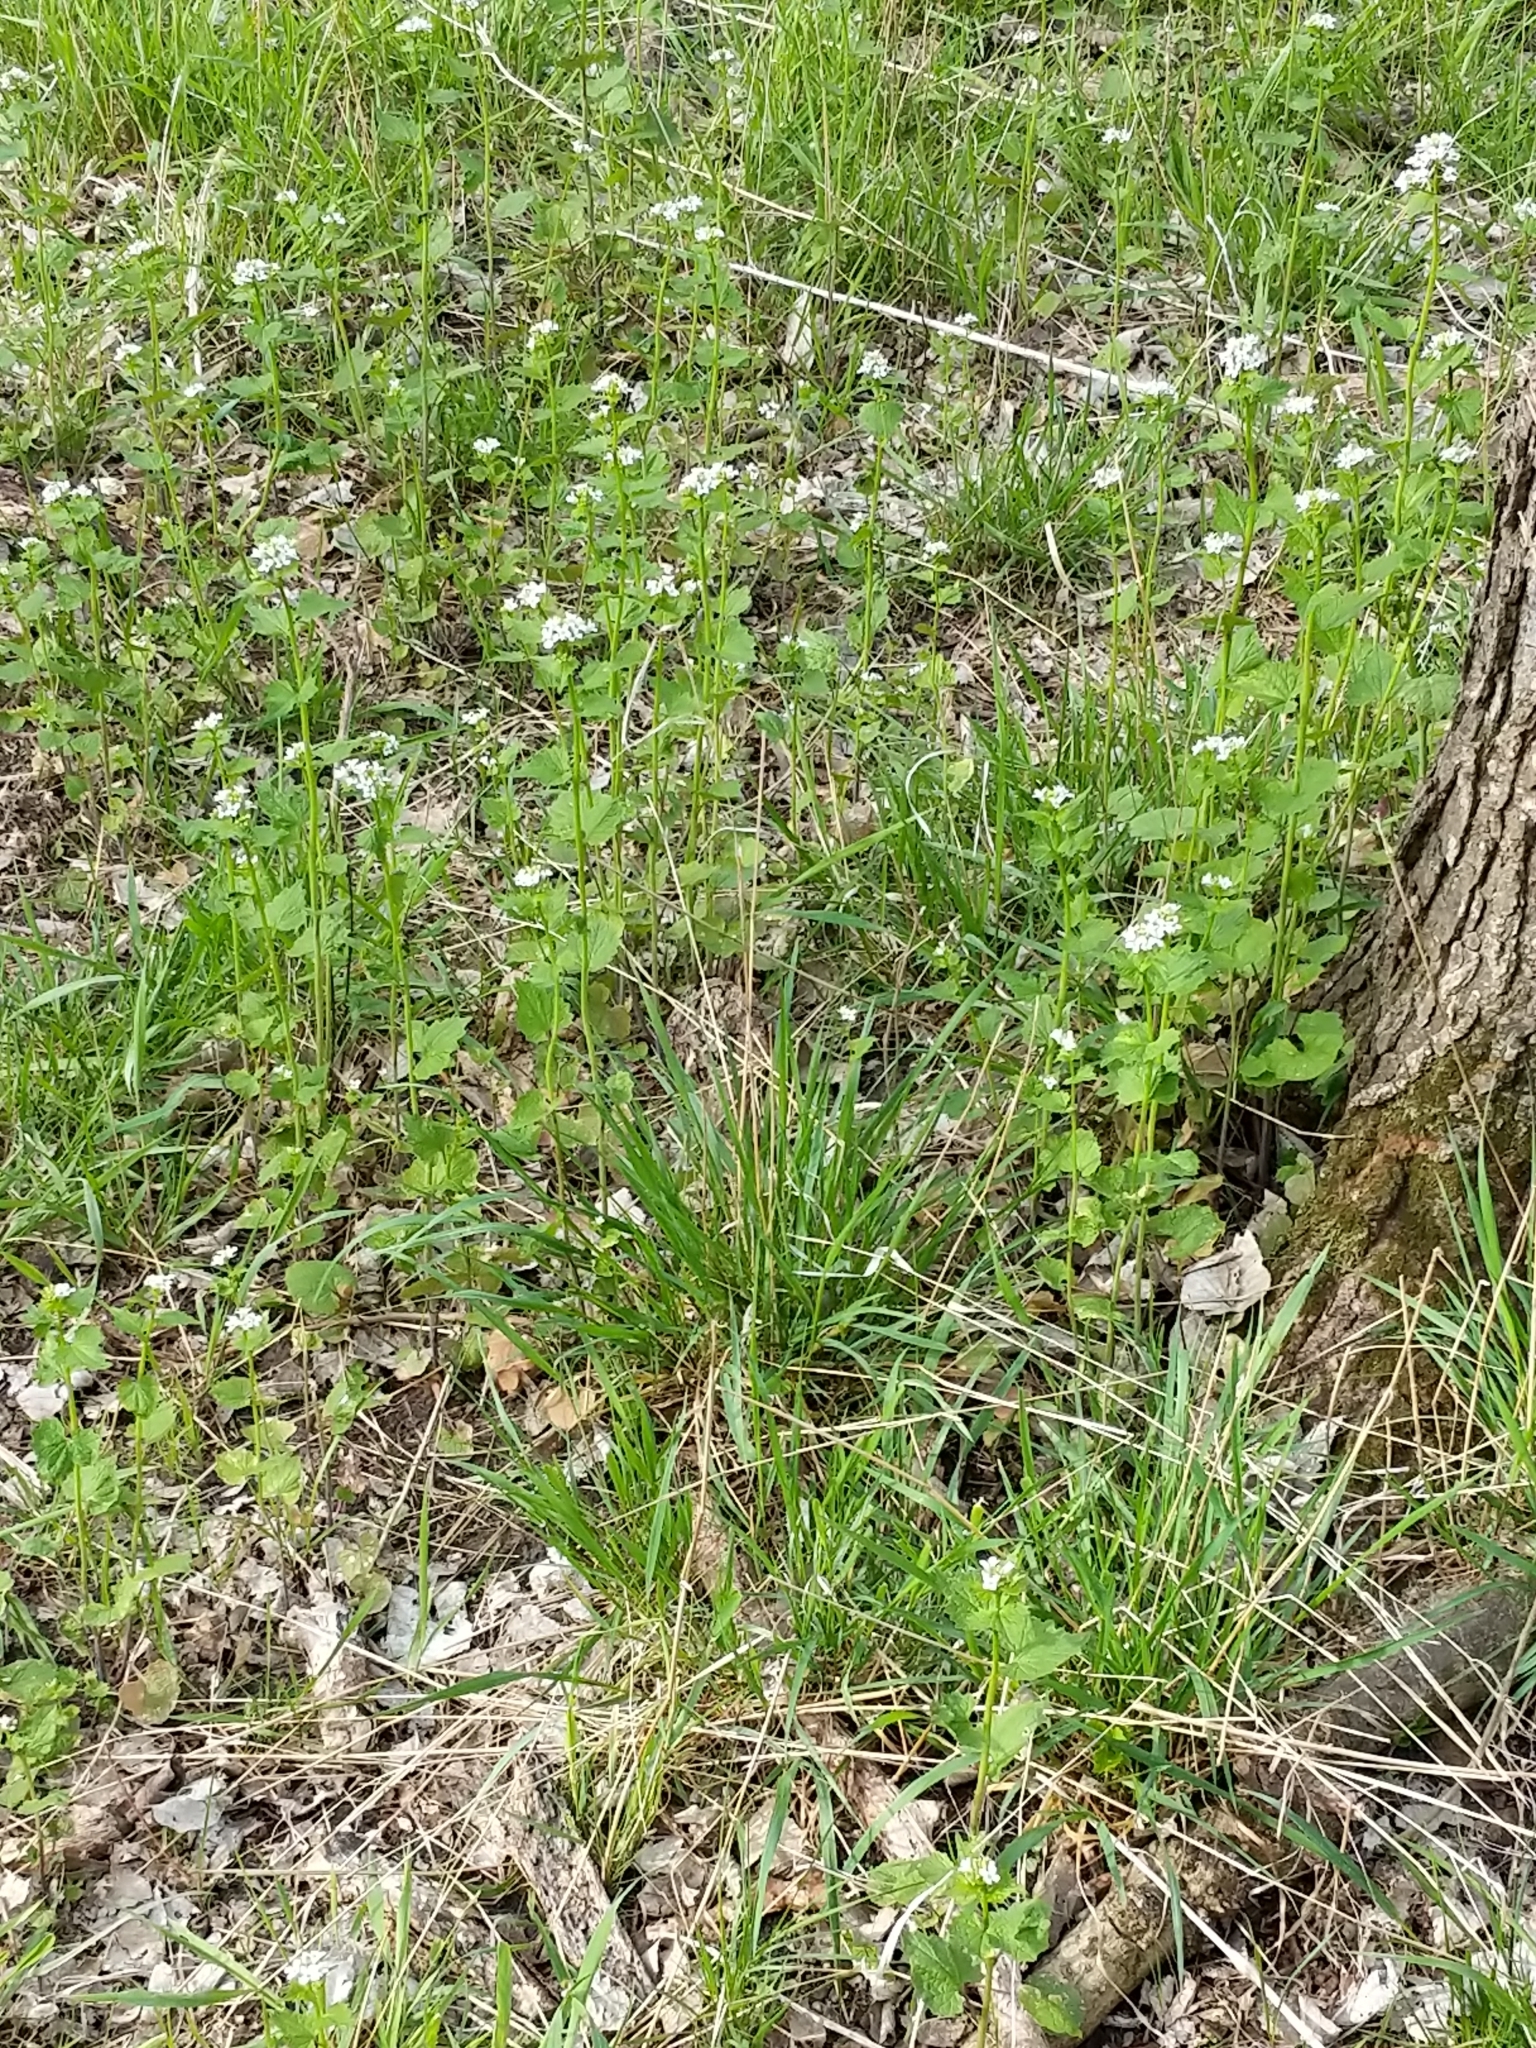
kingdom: Plantae
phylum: Tracheophyta
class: Magnoliopsida
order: Brassicales
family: Brassicaceae
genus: Alliaria
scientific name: Alliaria petiolata
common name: Garlic mustard
